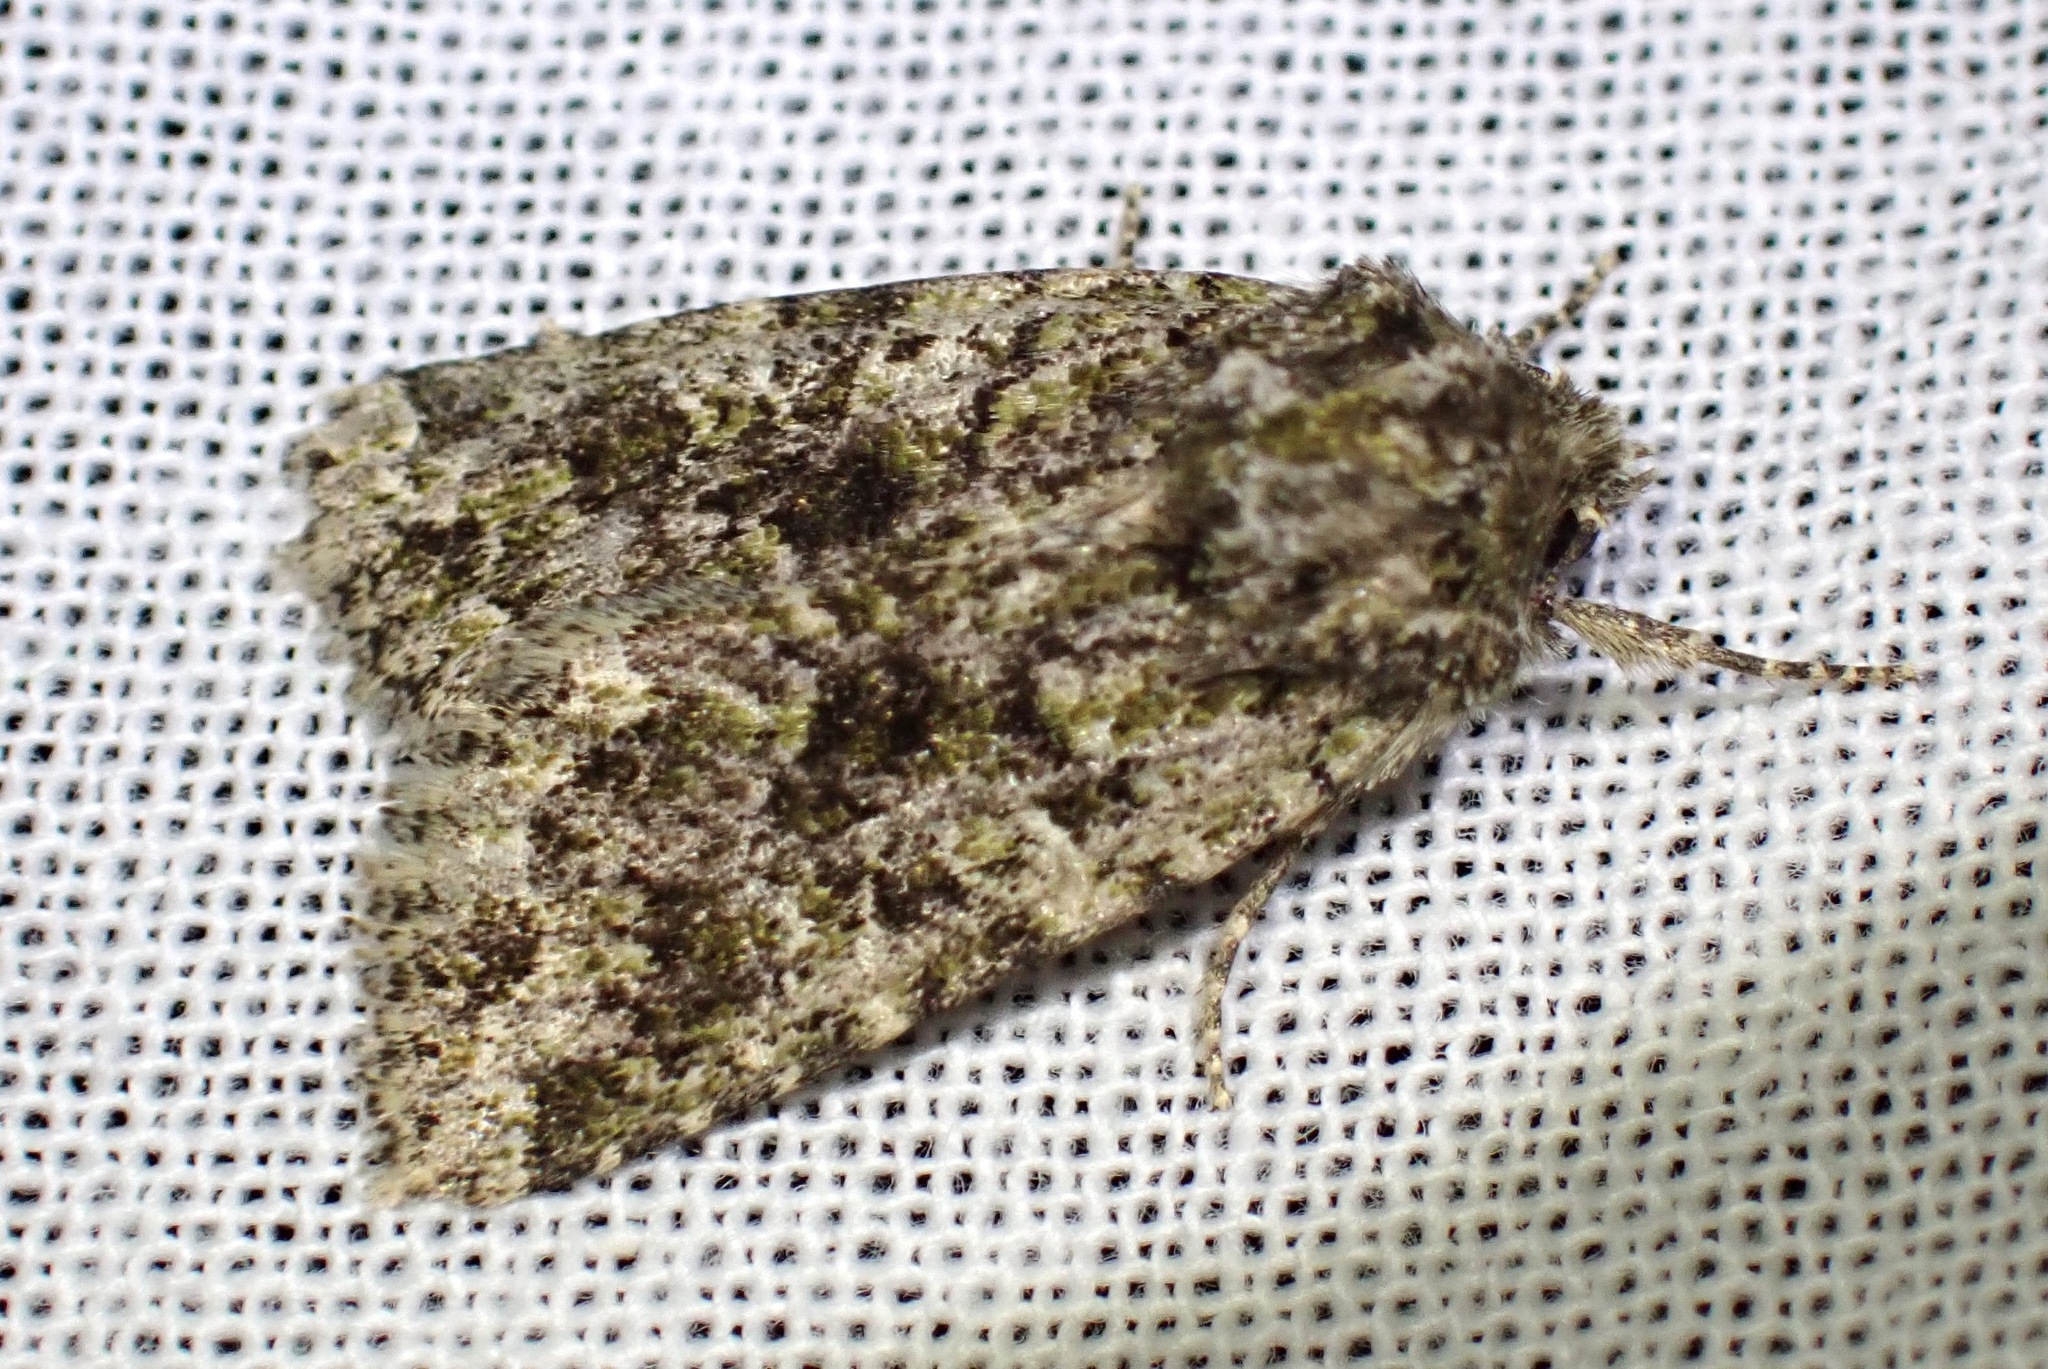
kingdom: Animalia
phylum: Arthropoda
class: Insecta
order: Lepidoptera
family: Noctuidae
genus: Aseptis
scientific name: Aseptis marina
